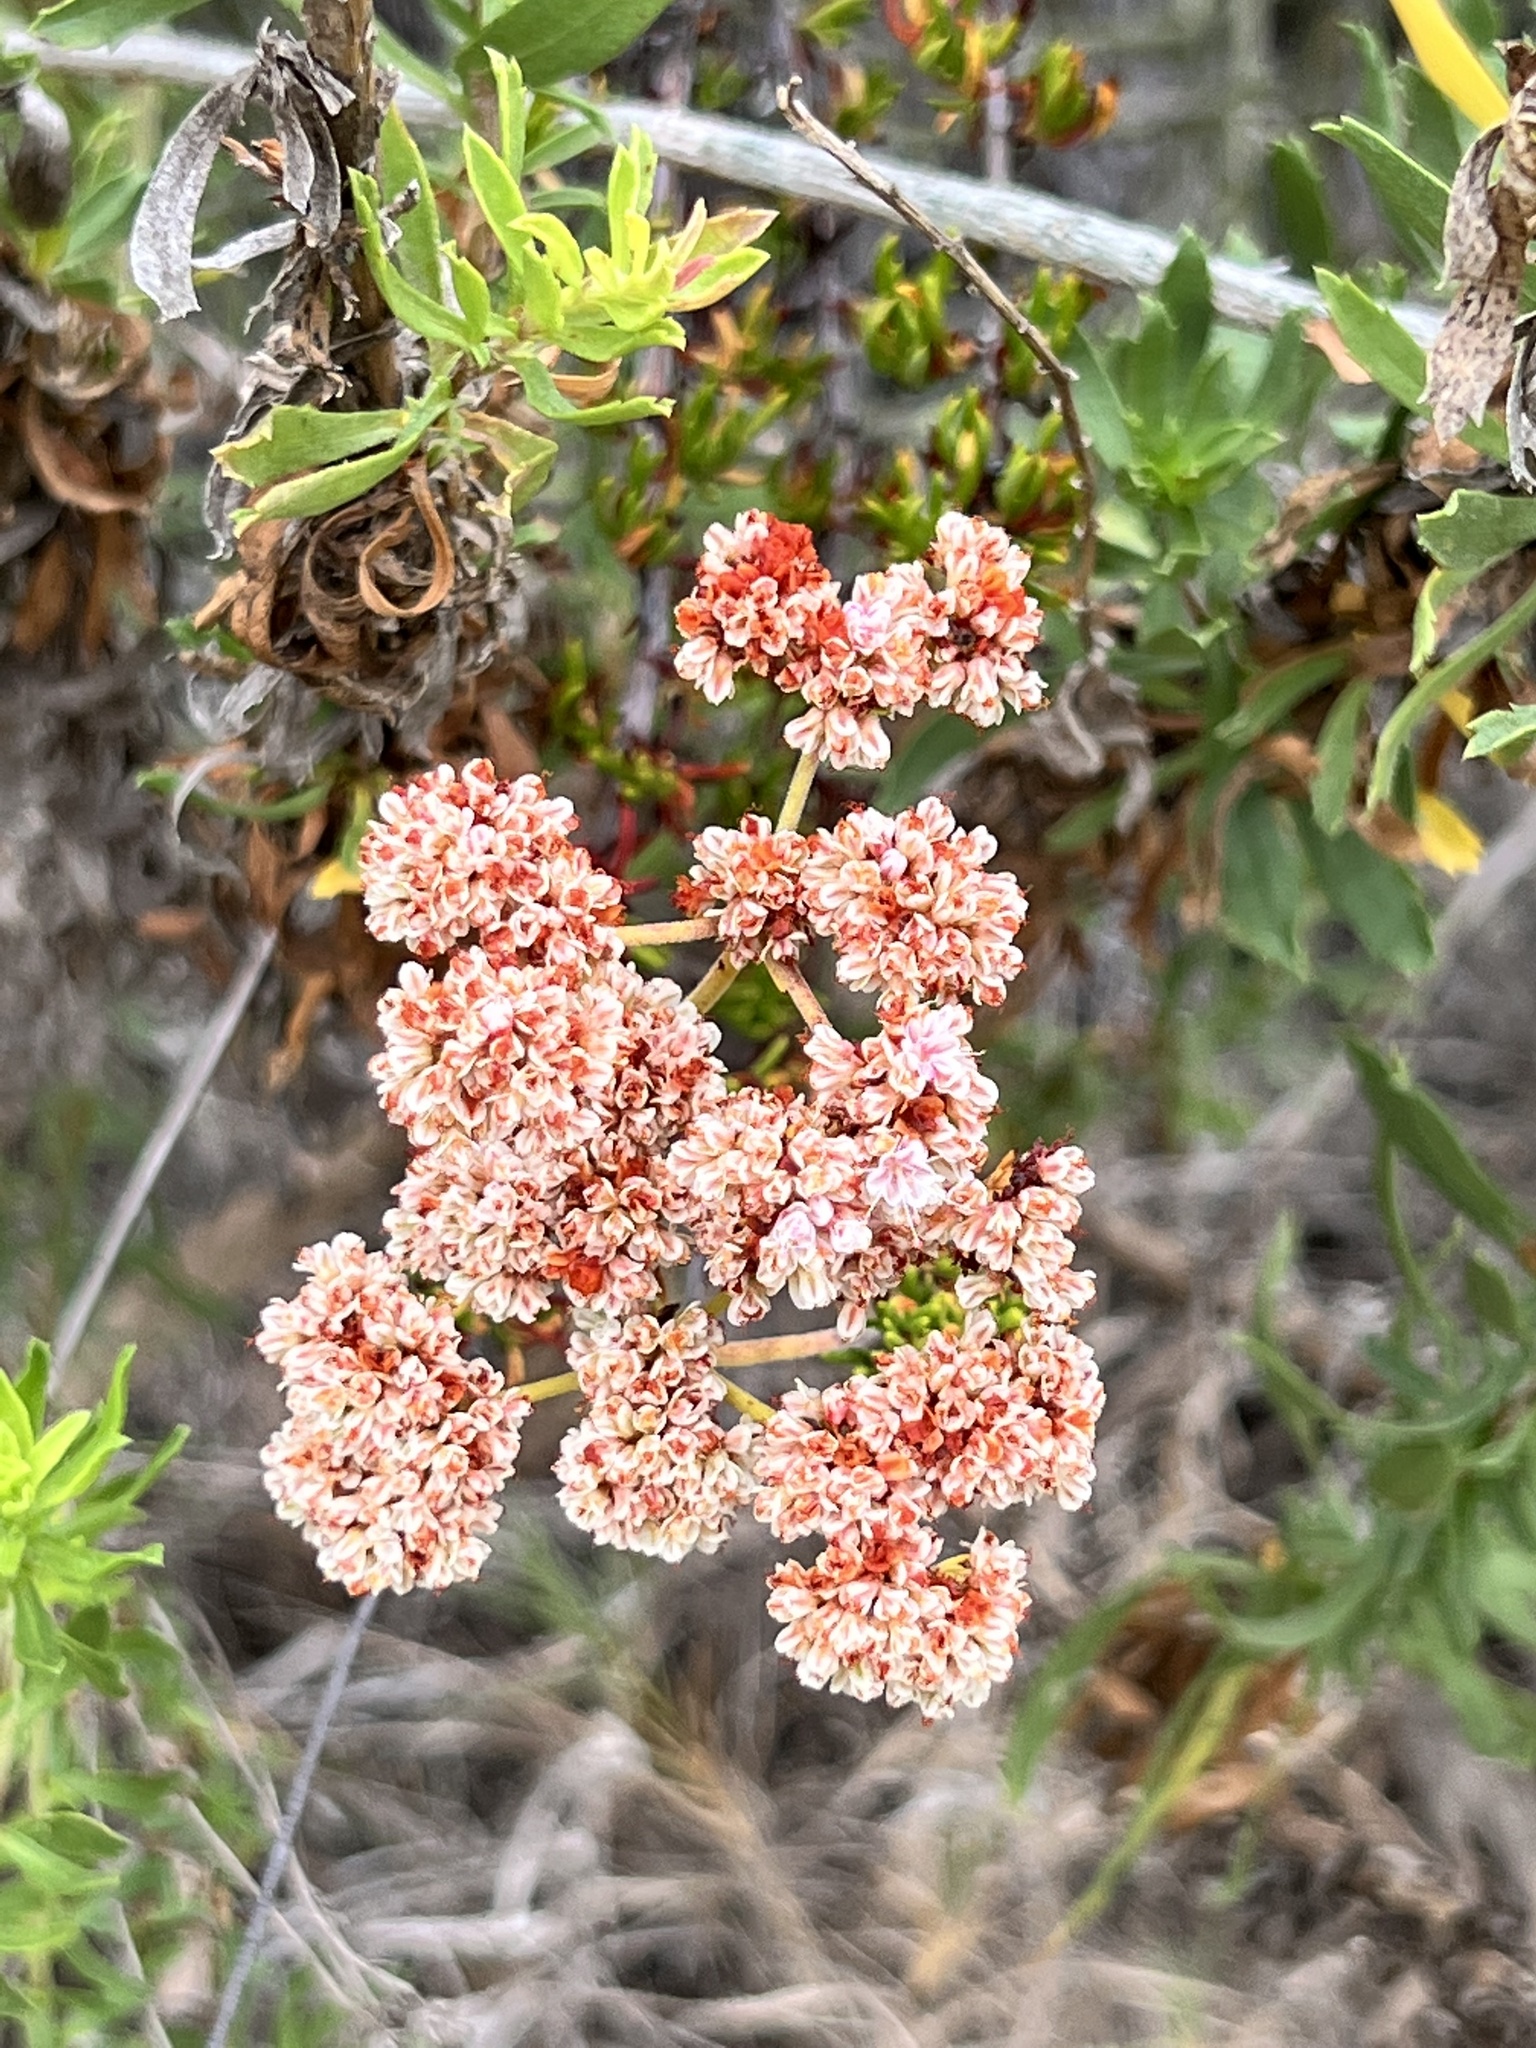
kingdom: Plantae
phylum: Tracheophyta
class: Magnoliopsida
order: Caryophyllales
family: Polygonaceae
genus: Eriogonum
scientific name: Eriogonum fasciculatum
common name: California wild buckwheat
